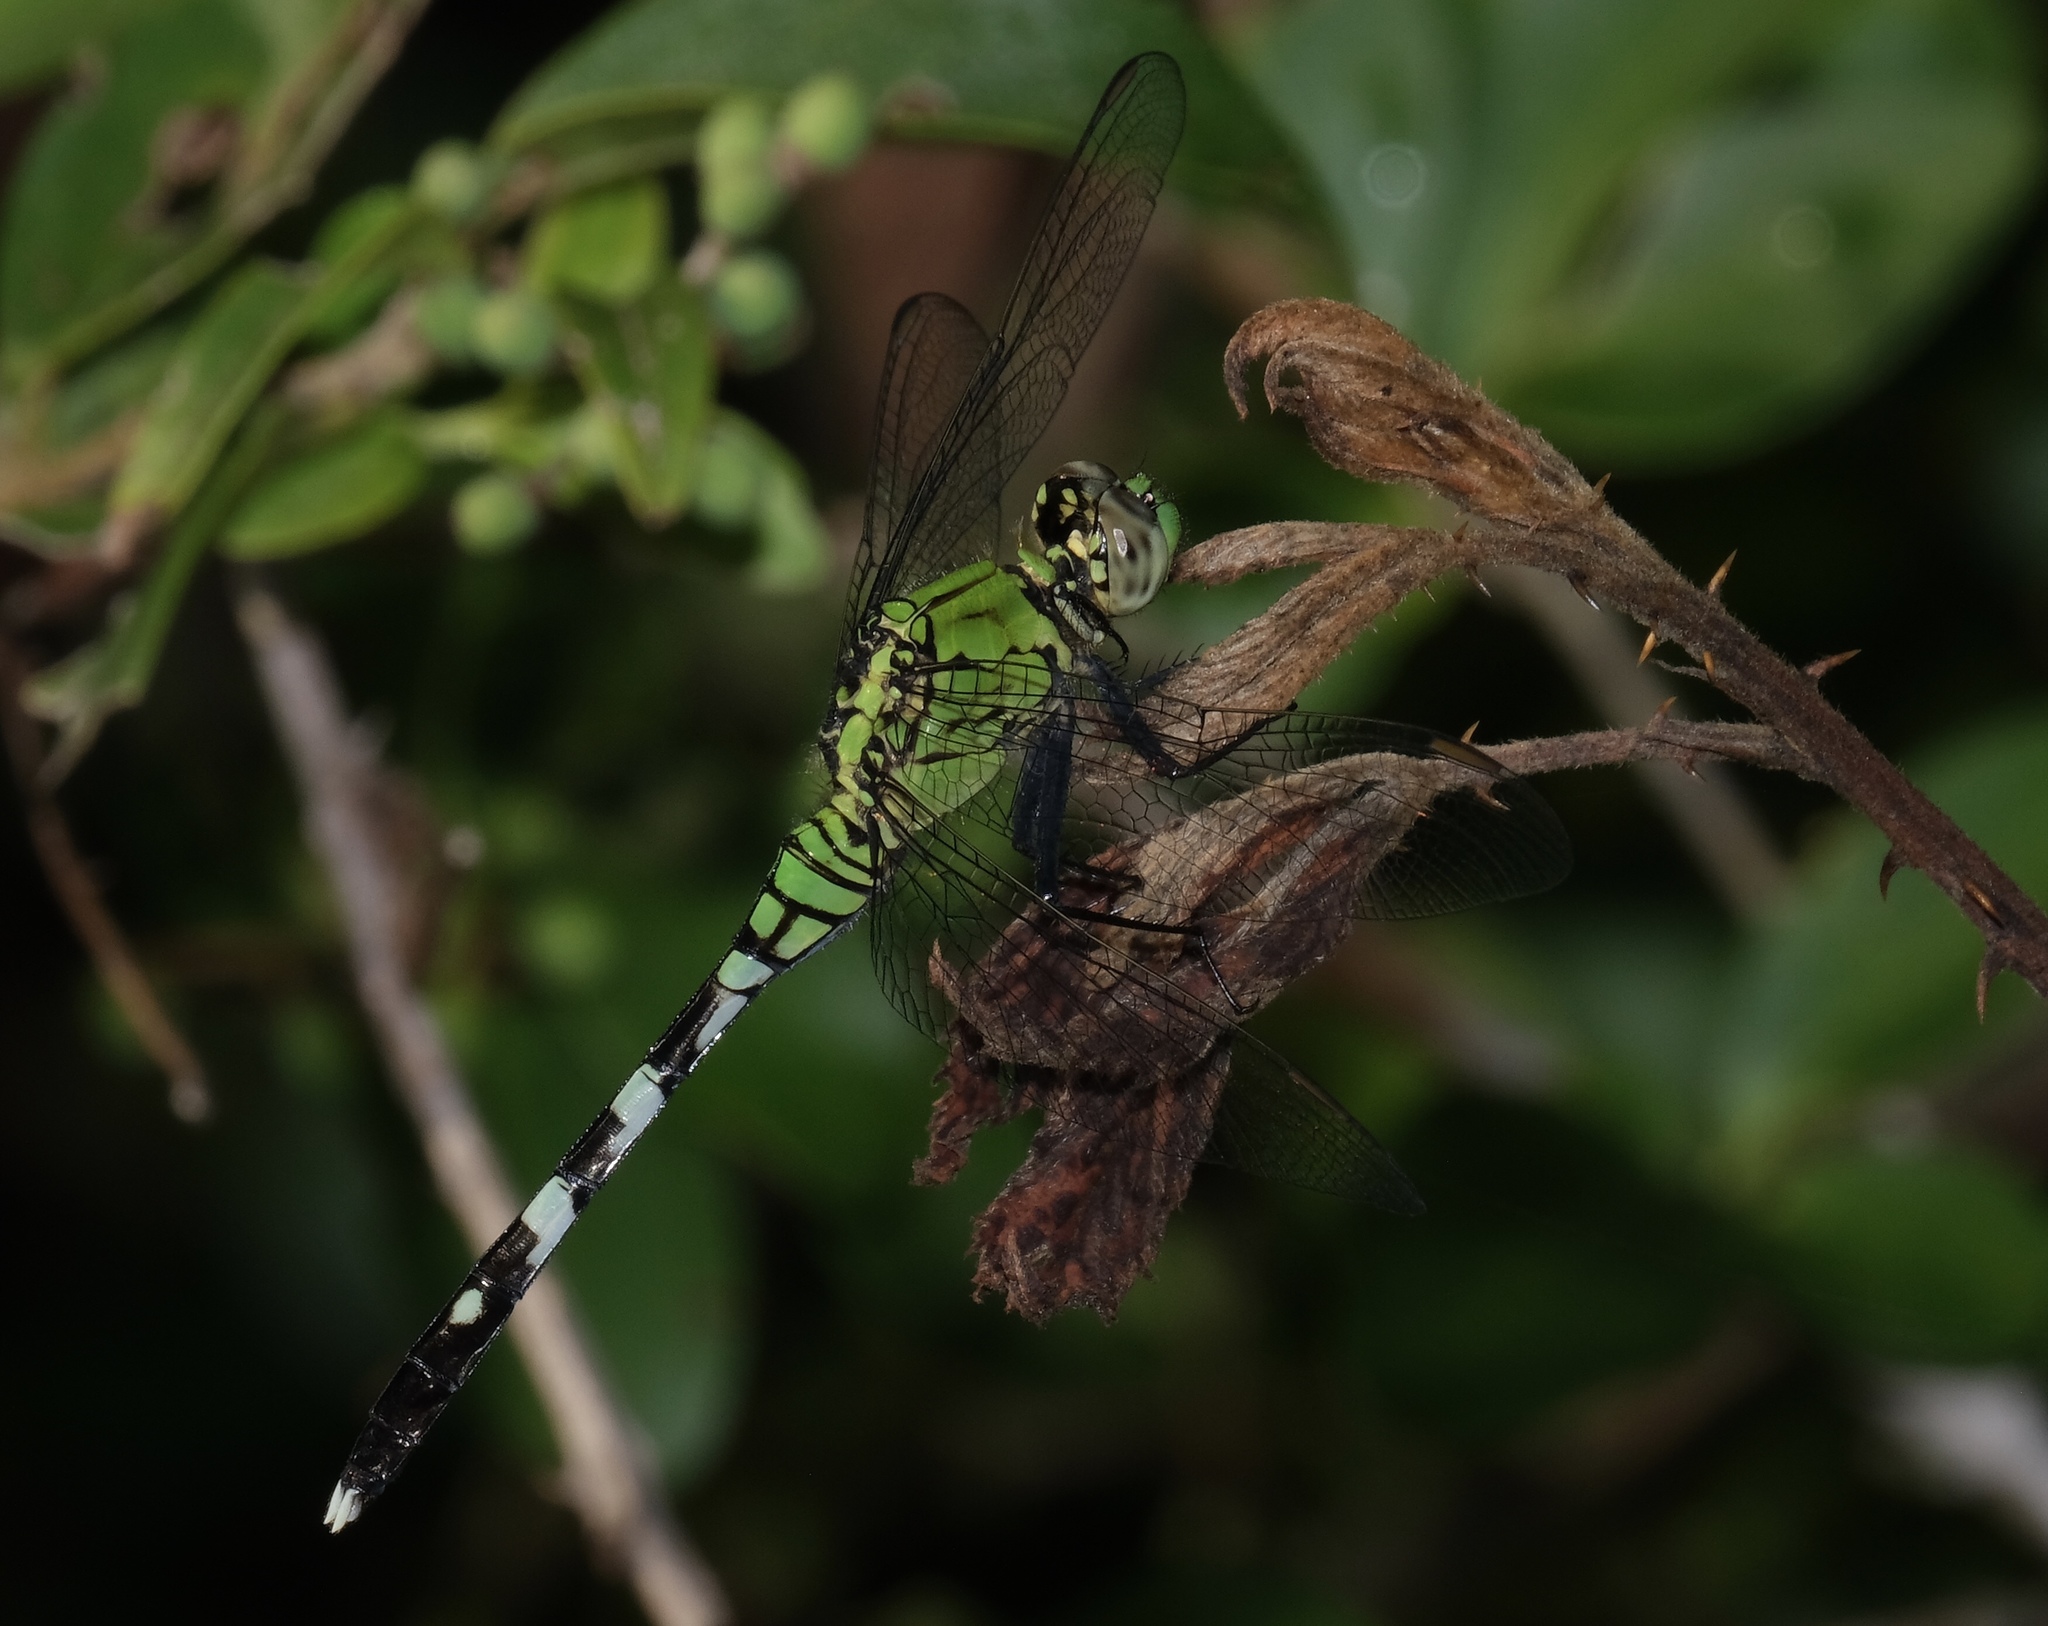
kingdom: Animalia
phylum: Arthropoda
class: Insecta
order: Odonata
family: Libellulidae
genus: Erythemis
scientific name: Erythemis simplicicollis
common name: Eastern pondhawk
